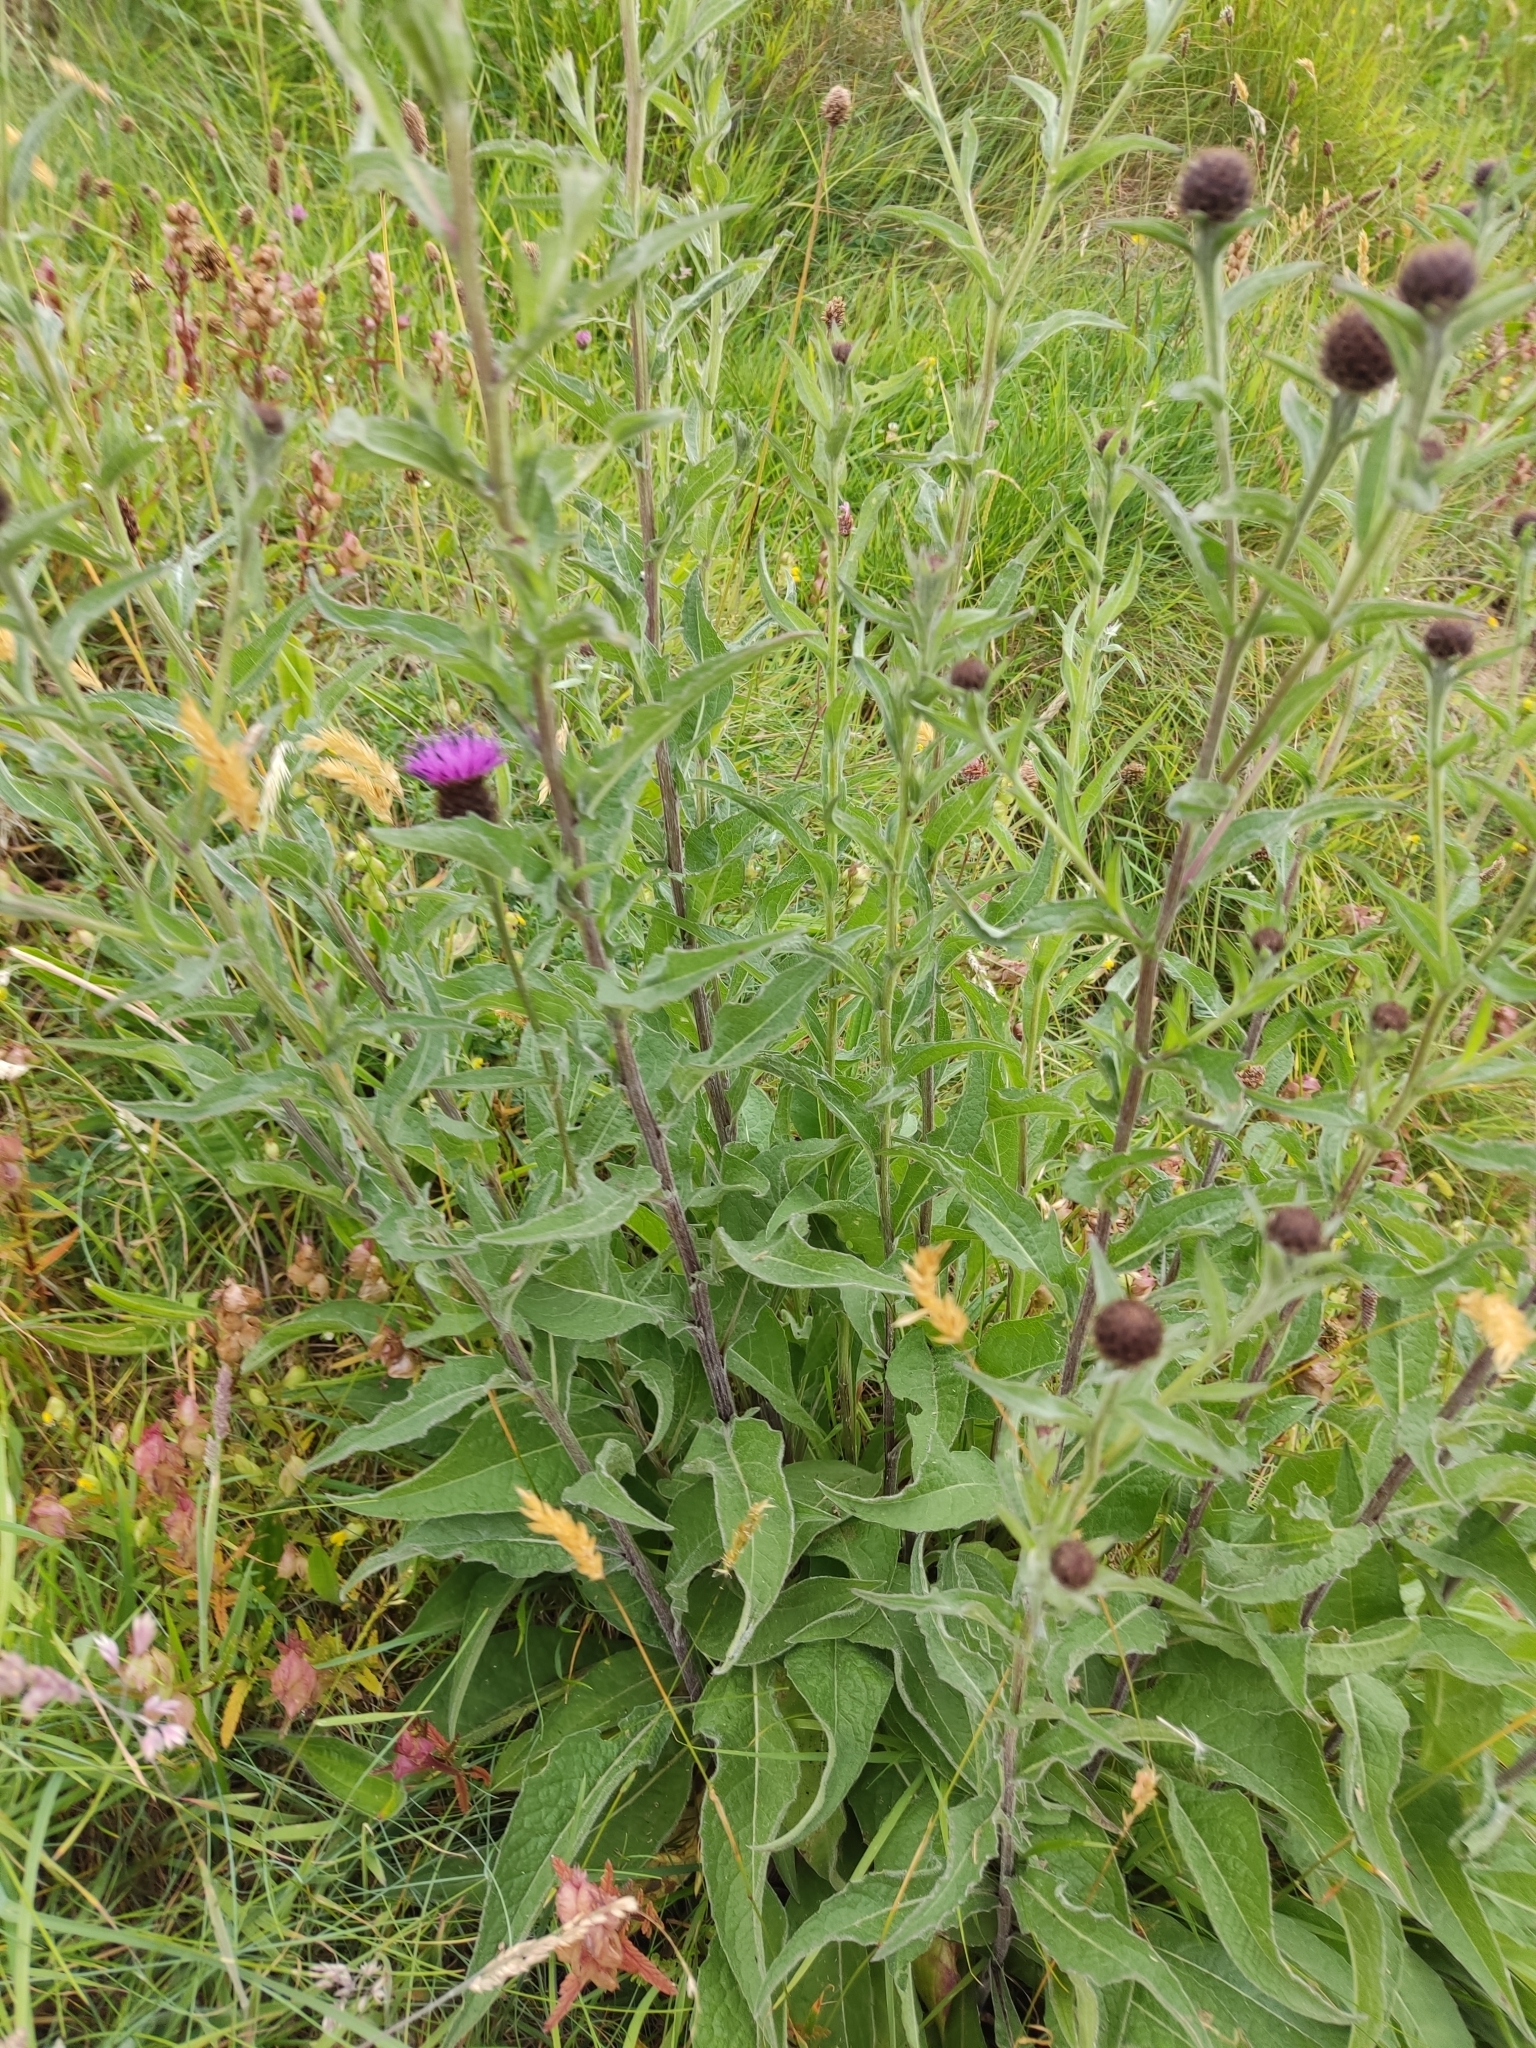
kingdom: Plantae
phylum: Tracheophyta
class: Magnoliopsida
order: Asterales
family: Asteraceae
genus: Centaurea
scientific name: Centaurea nigra
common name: Lesser knapweed
